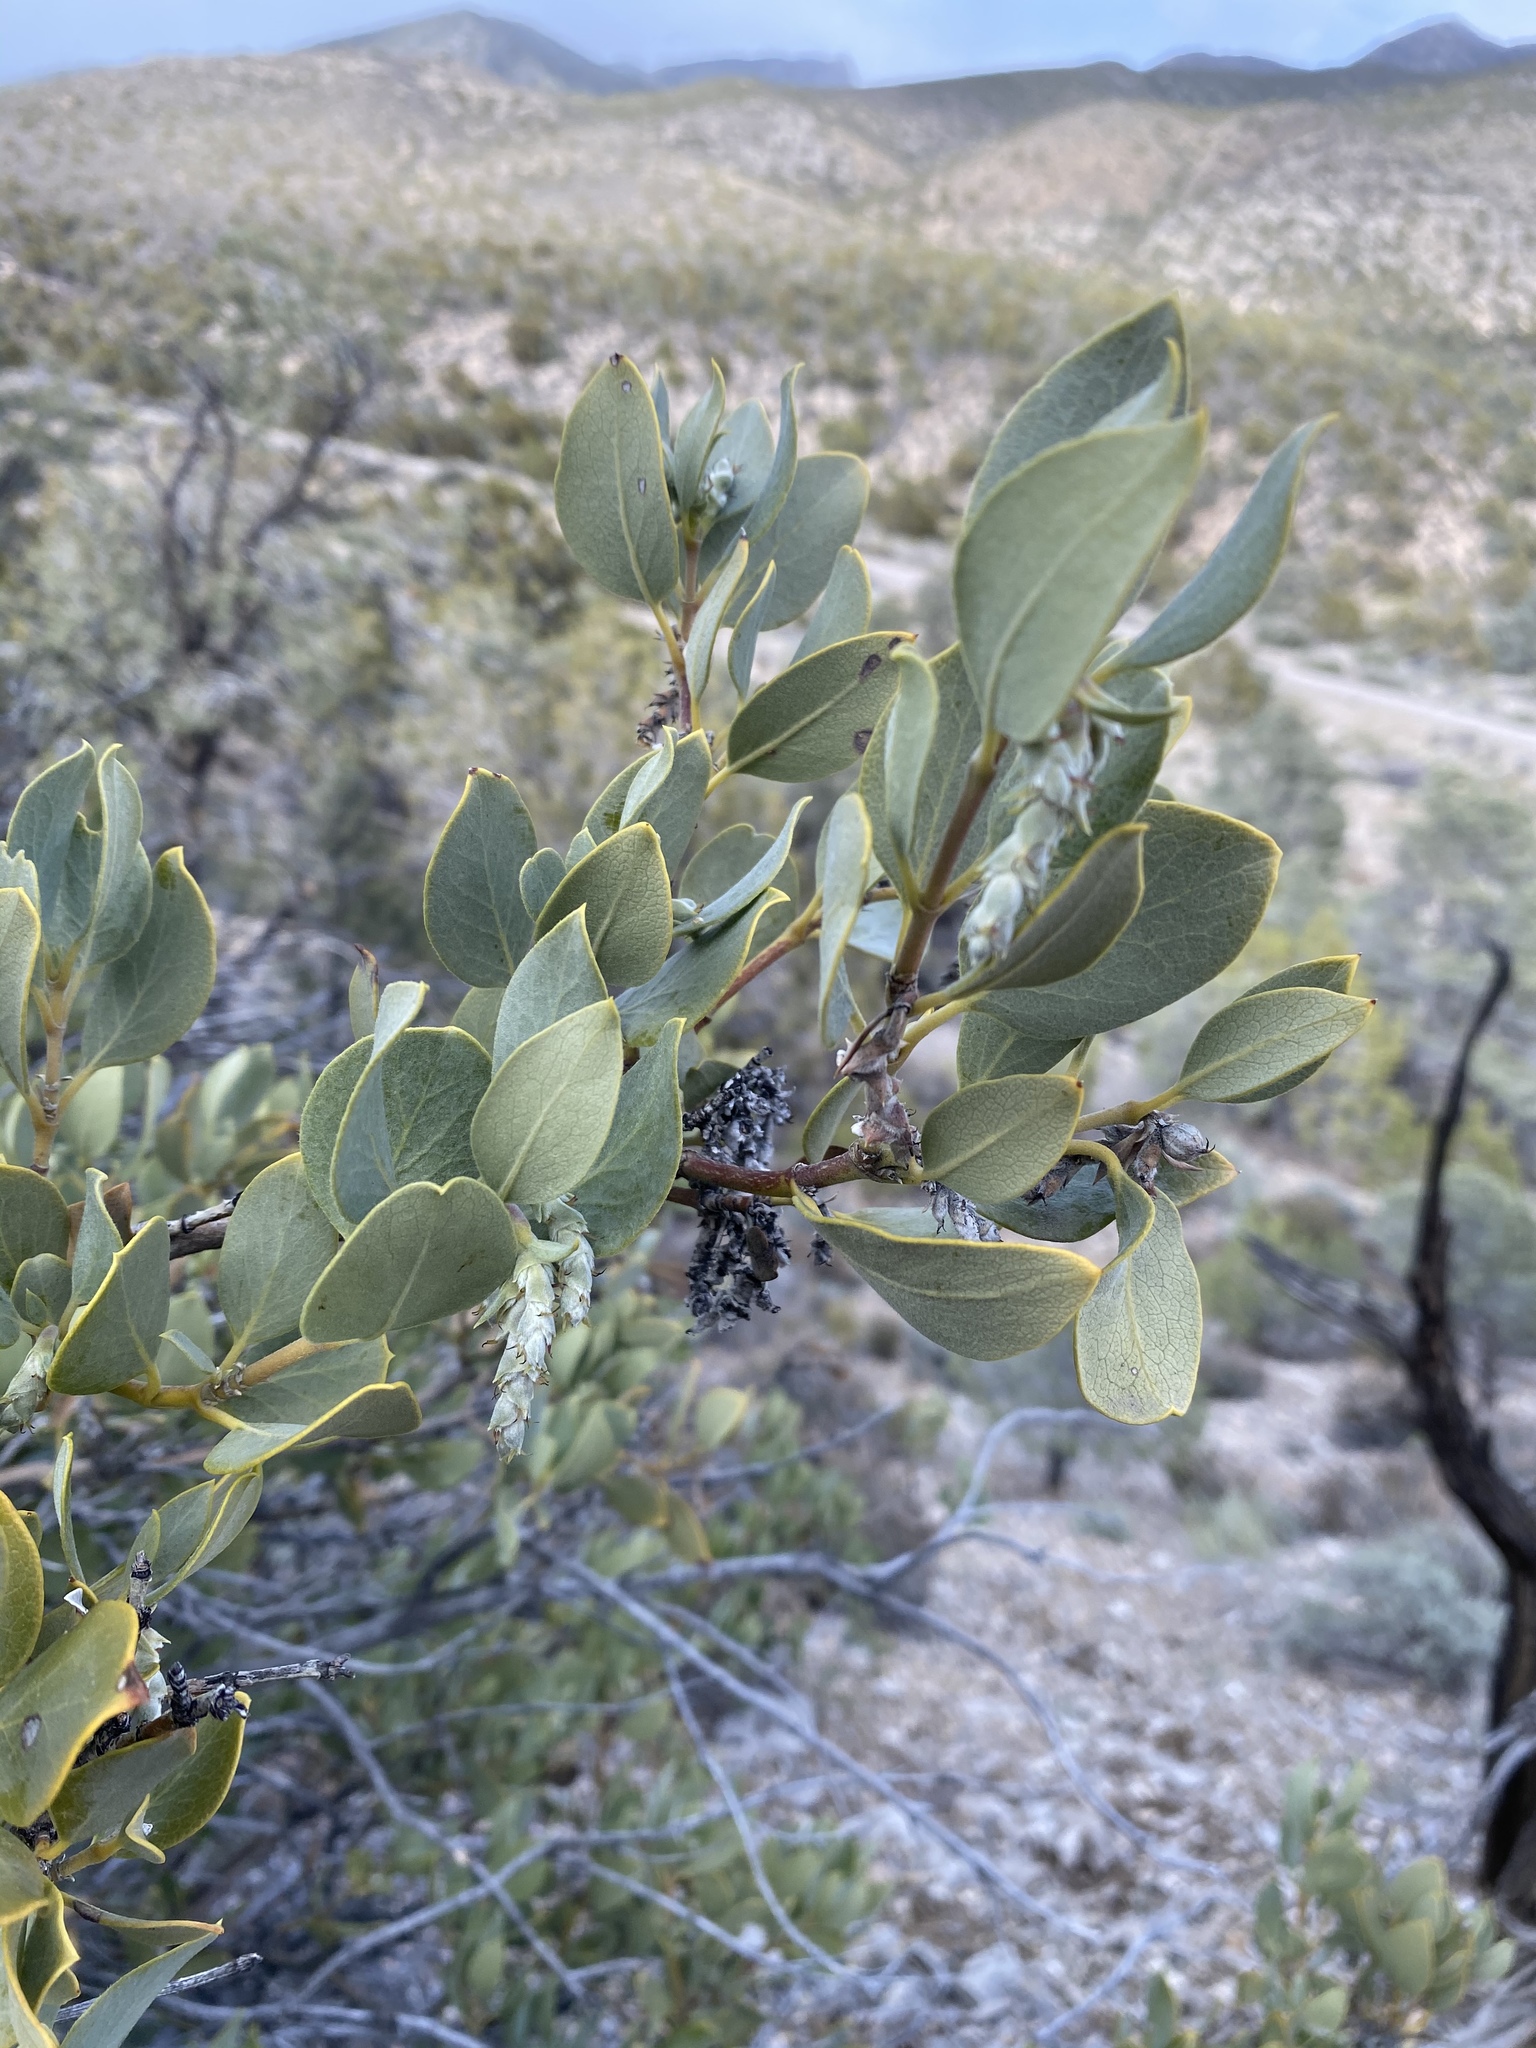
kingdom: Plantae
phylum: Tracheophyta
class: Magnoliopsida
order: Garryales
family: Garryaceae
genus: Garrya
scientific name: Garrya flavescens
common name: Ashy silk-tassel
